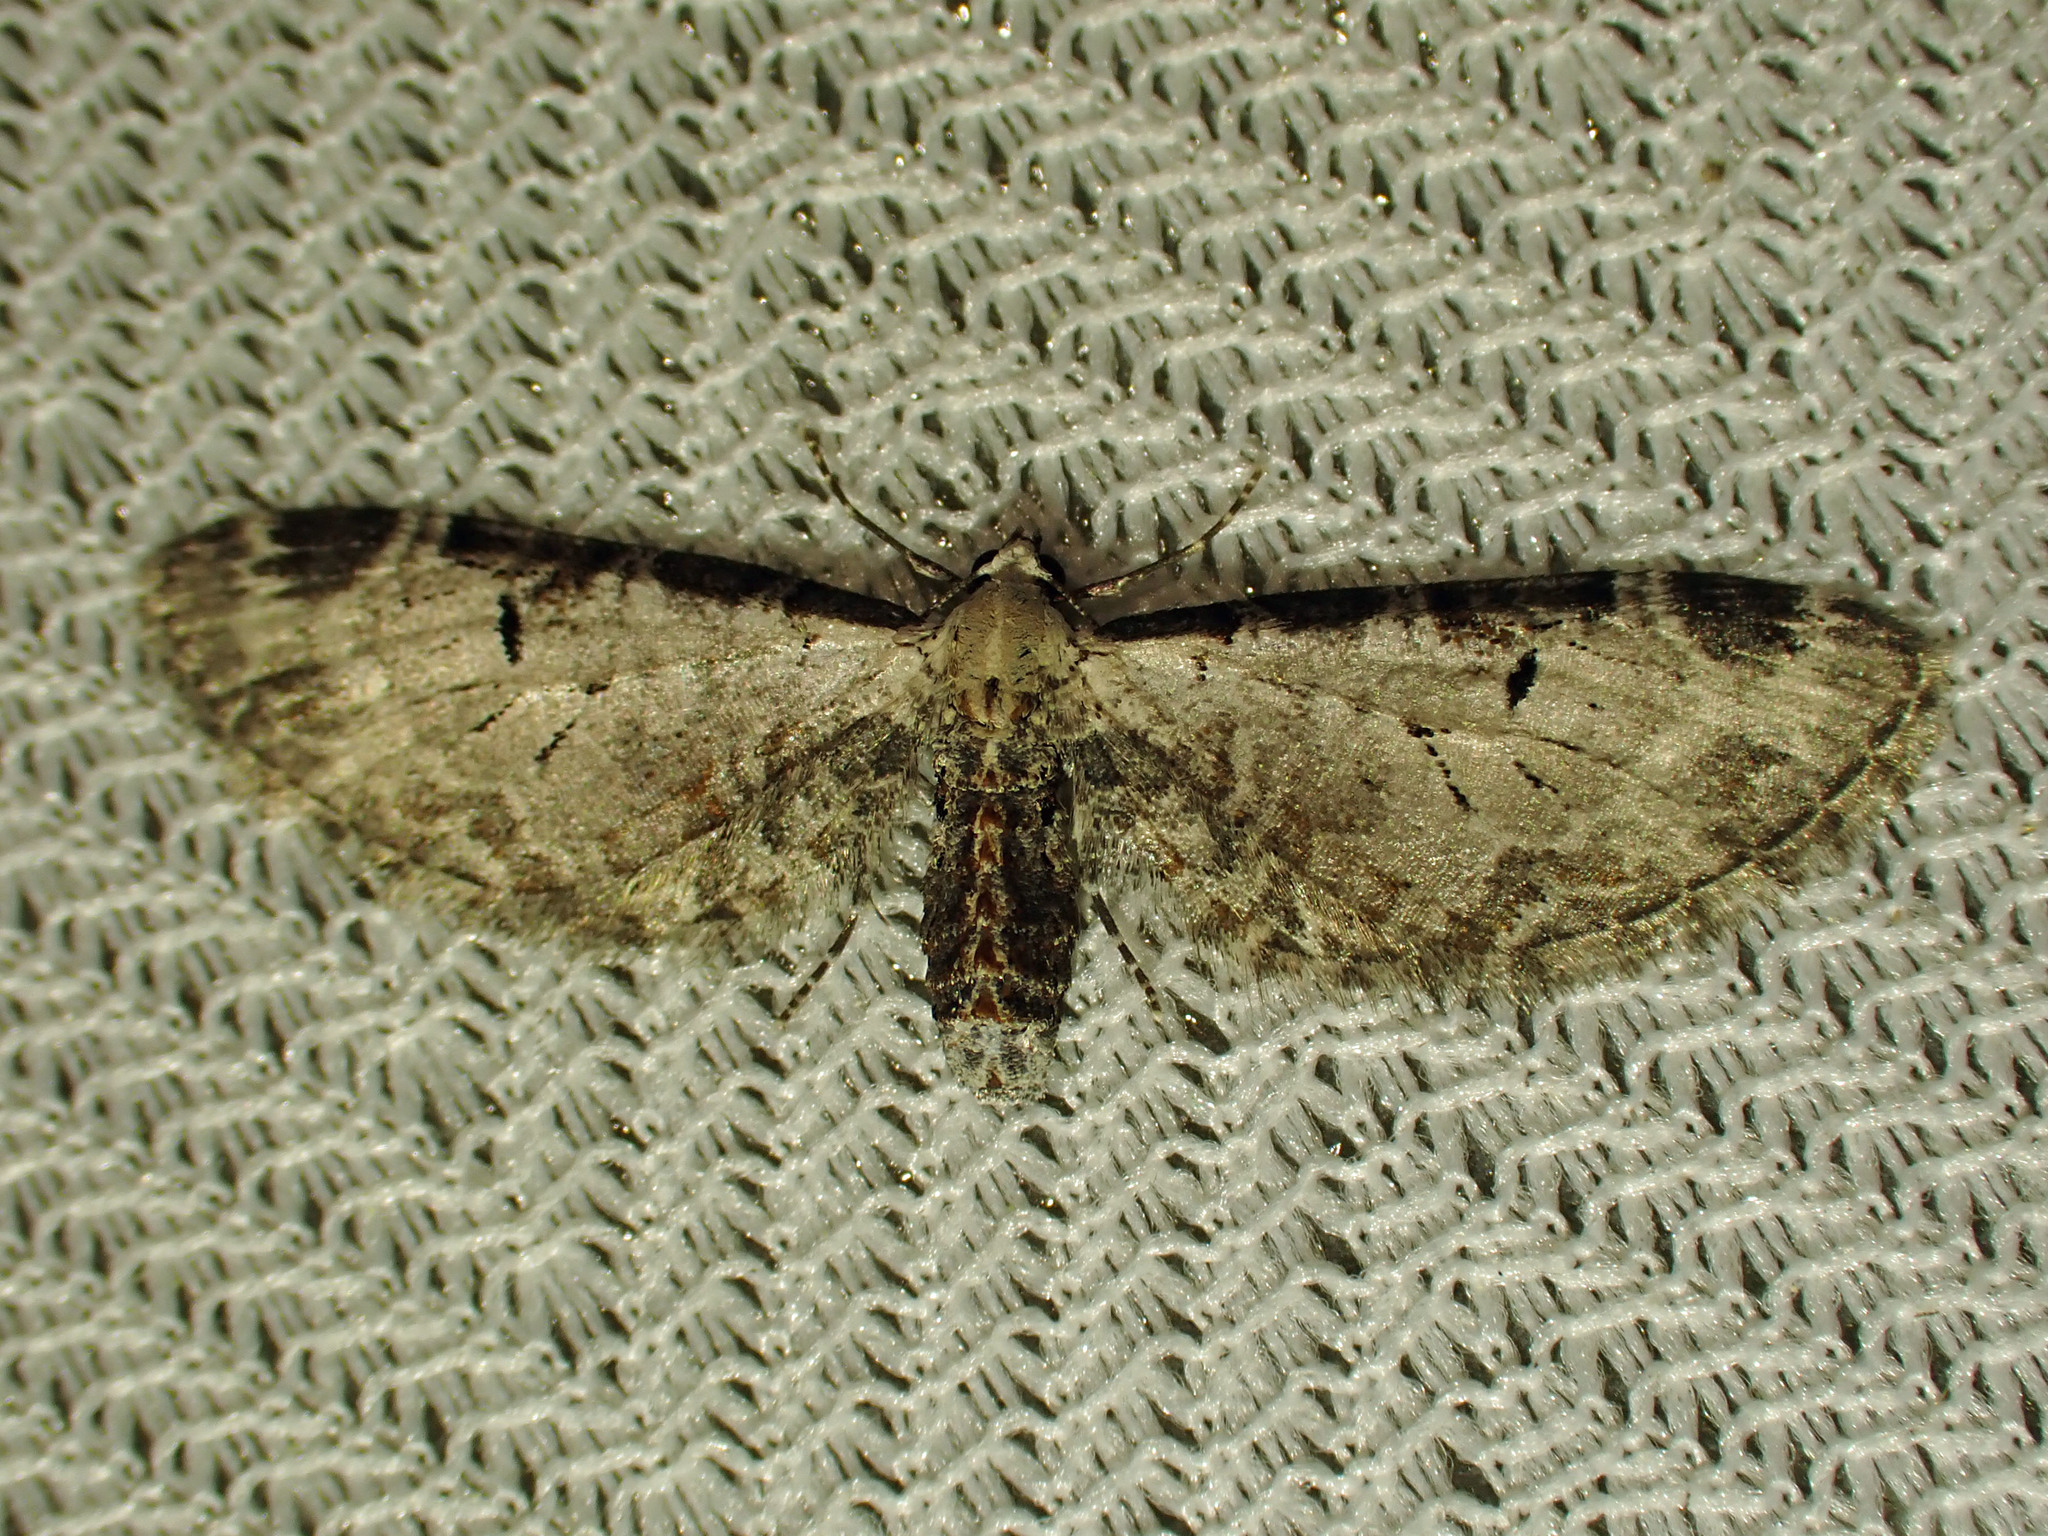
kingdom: Animalia
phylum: Arthropoda
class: Insecta
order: Lepidoptera
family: Geometridae
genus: Eupithecia
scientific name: Eupithecia ravocostaliata
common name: Great varigated pug
